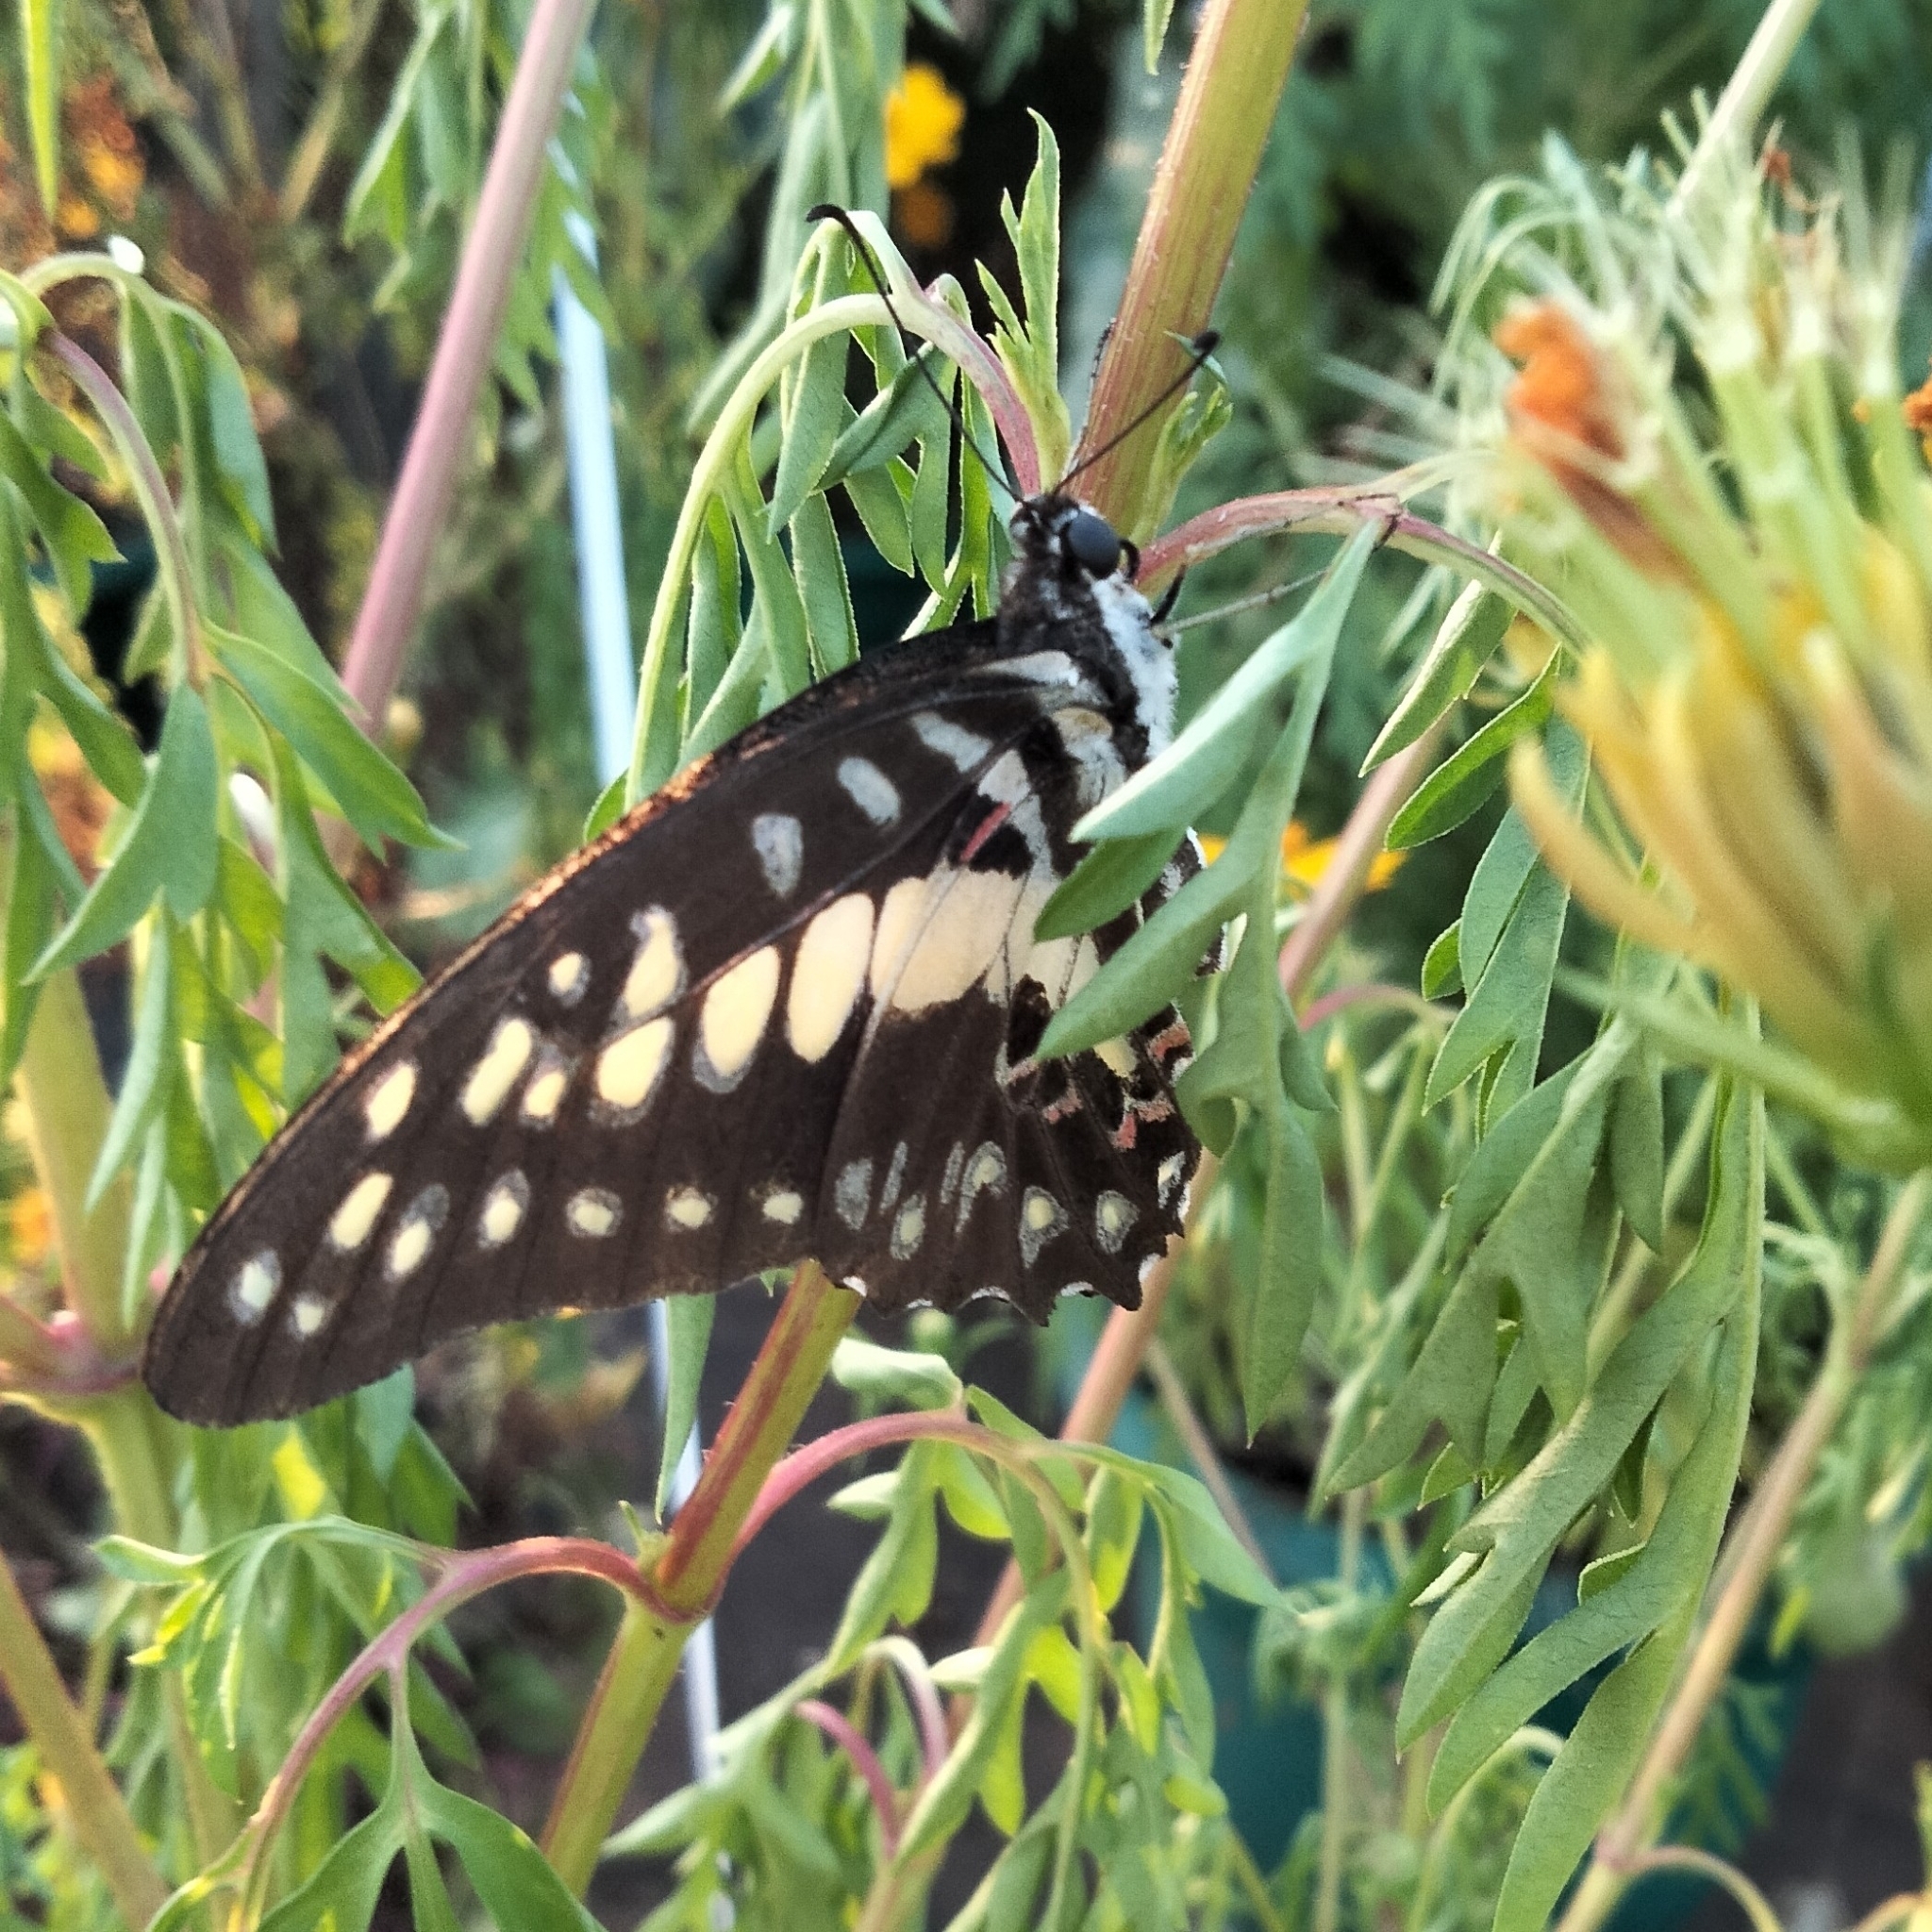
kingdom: Animalia
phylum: Arthropoda
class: Insecta
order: Lepidoptera
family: Papilionidae
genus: Graphium
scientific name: Graphium doson
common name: Common jay
